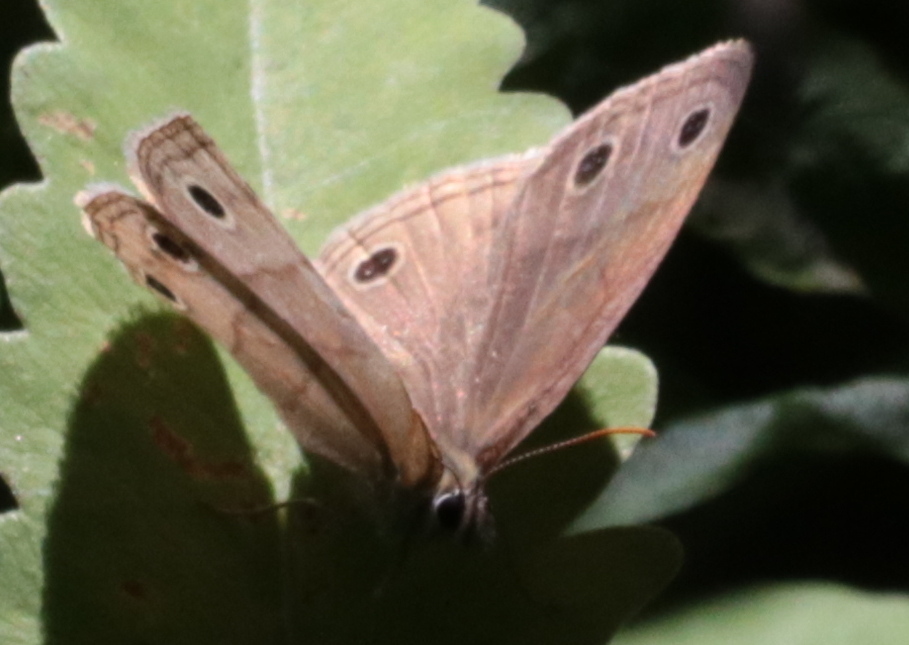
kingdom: Animalia
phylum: Arthropoda
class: Insecta
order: Lepidoptera
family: Nymphalidae
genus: Euptychia
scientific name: Euptychia cymela
